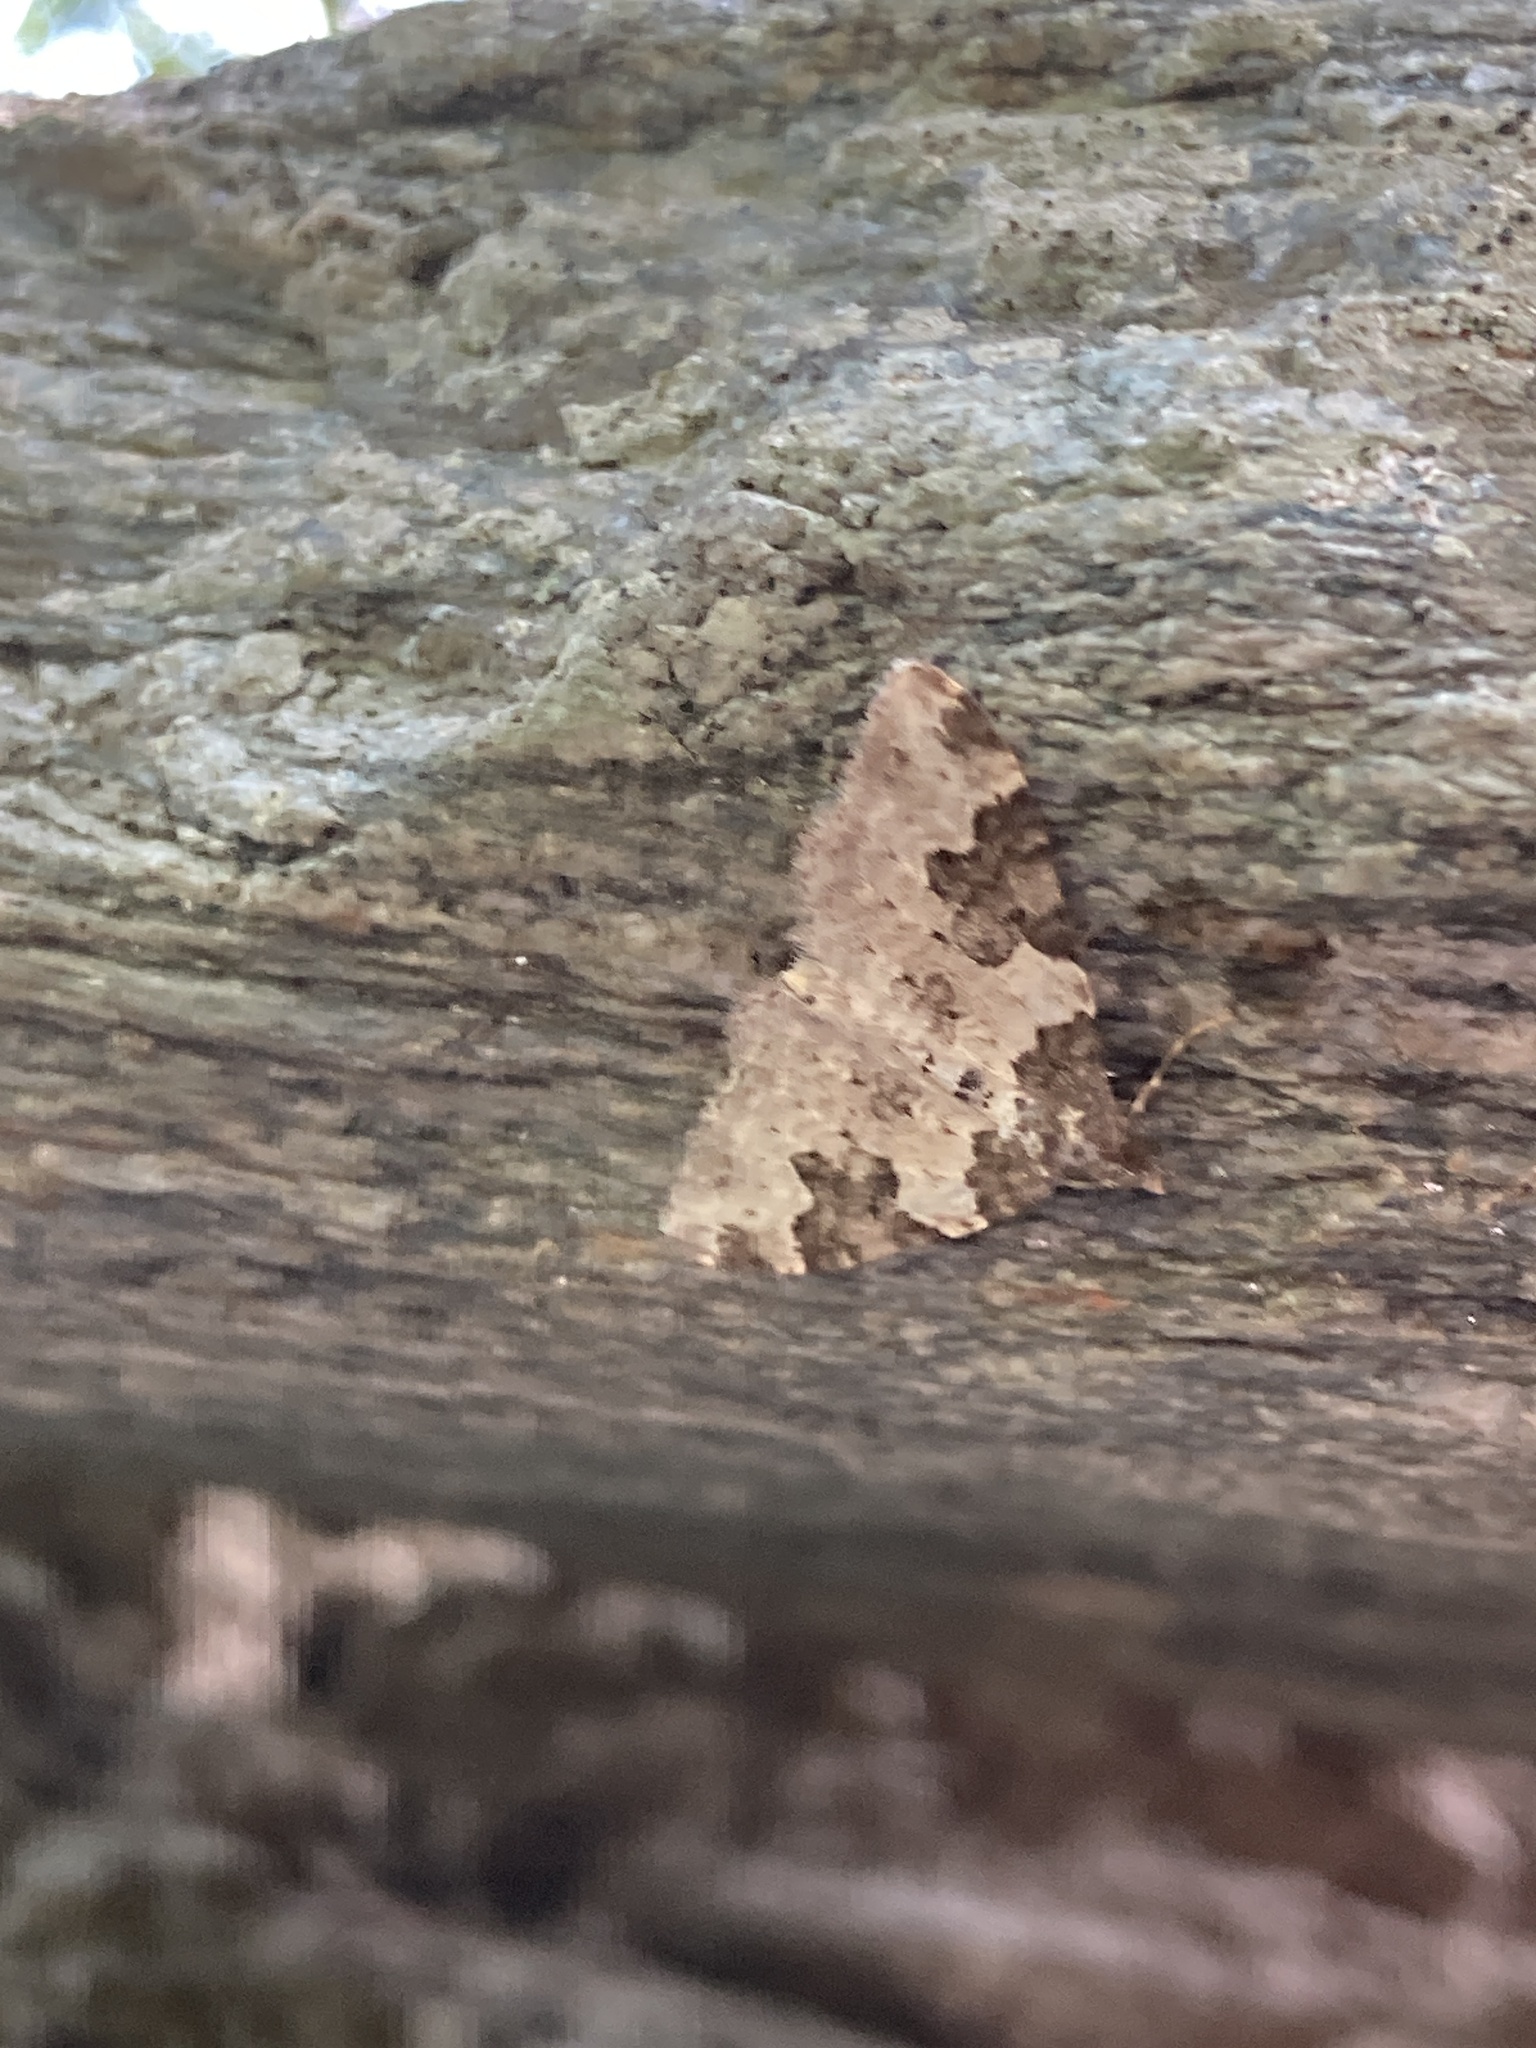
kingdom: Animalia
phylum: Arthropoda
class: Insecta
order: Lepidoptera
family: Geometridae
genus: Xanthorhoe
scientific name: Xanthorhoe fluctuata
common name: Garden carpet
